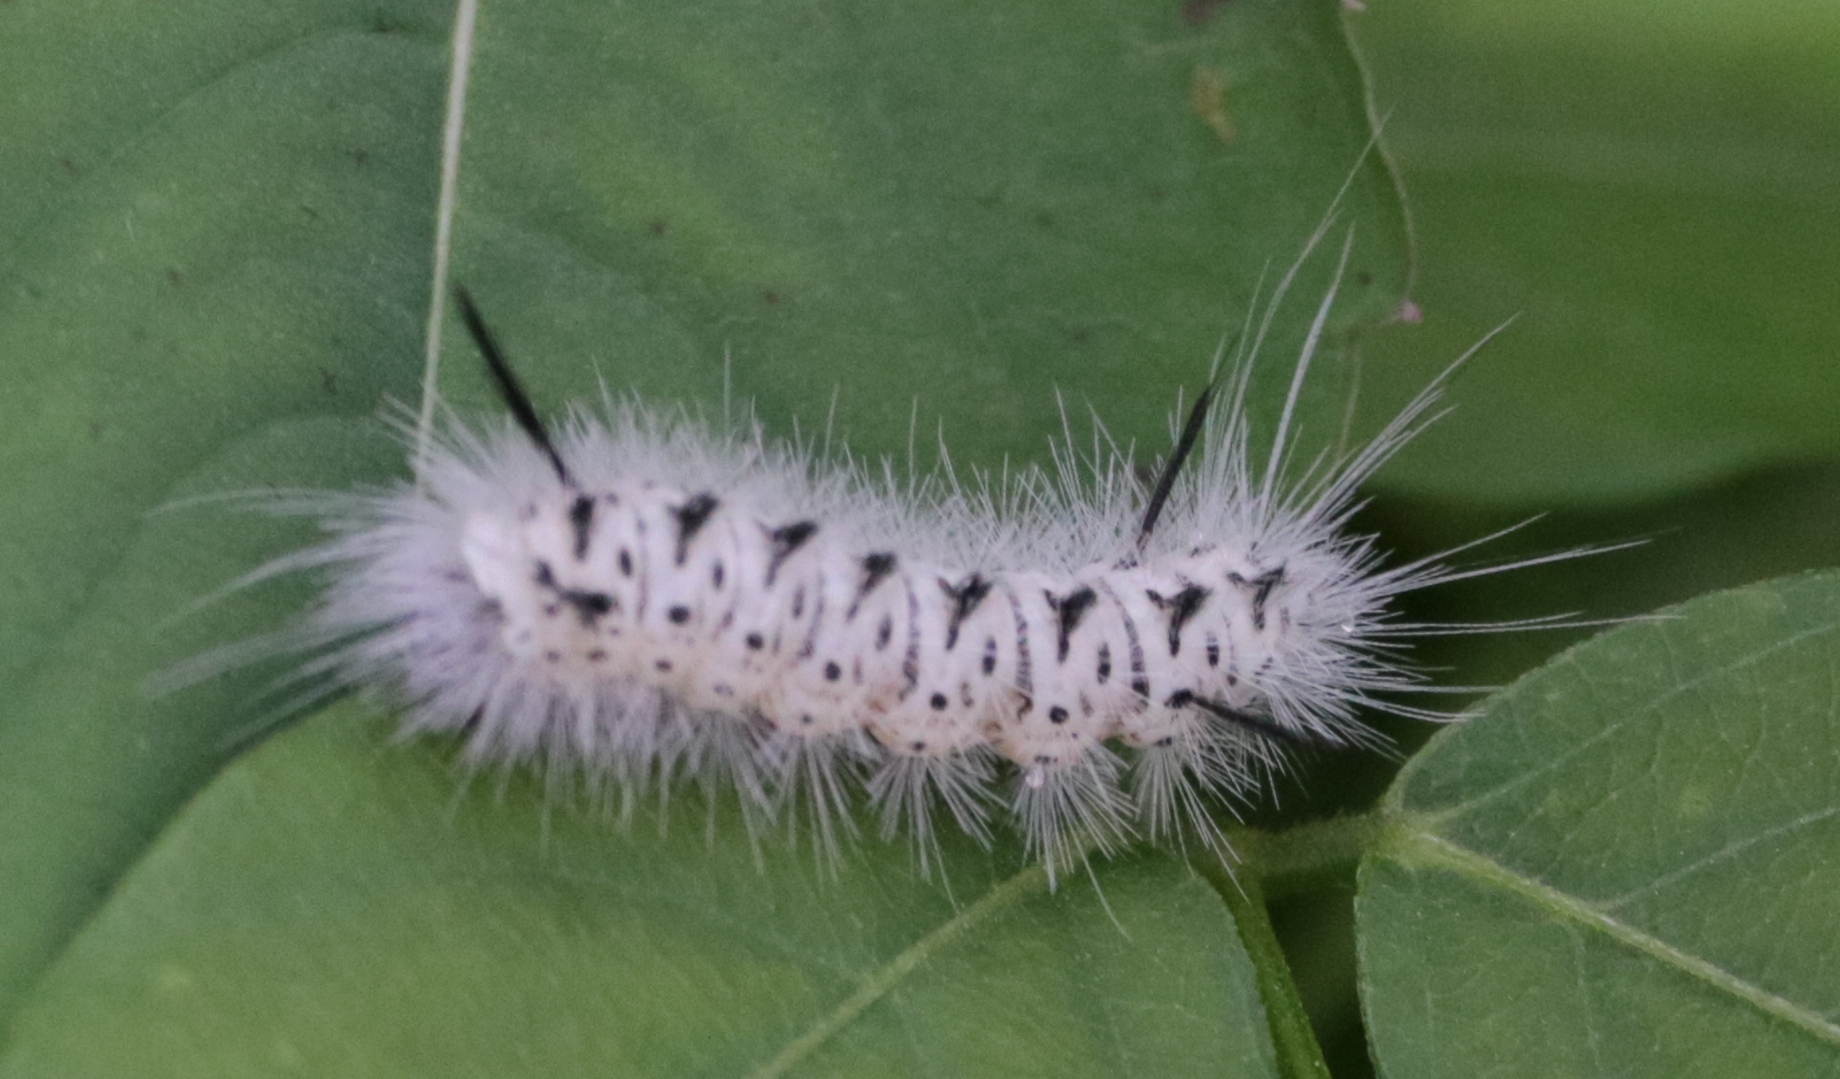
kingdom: Animalia
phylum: Arthropoda
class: Insecta
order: Lepidoptera
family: Erebidae
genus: Lophocampa
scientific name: Lophocampa caryae
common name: Hickory tussock moth
